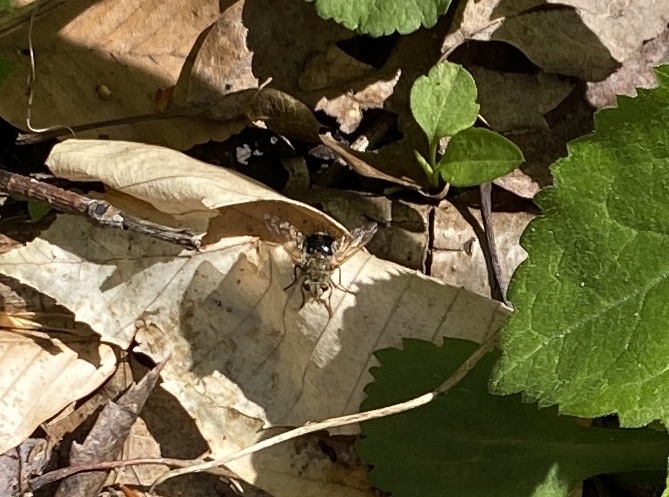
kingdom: Animalia
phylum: Arthropoda
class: Insecta
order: Diptera
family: Tachinidae
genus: Epalpus
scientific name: Epalpus signifer
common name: Early tachinid fly
